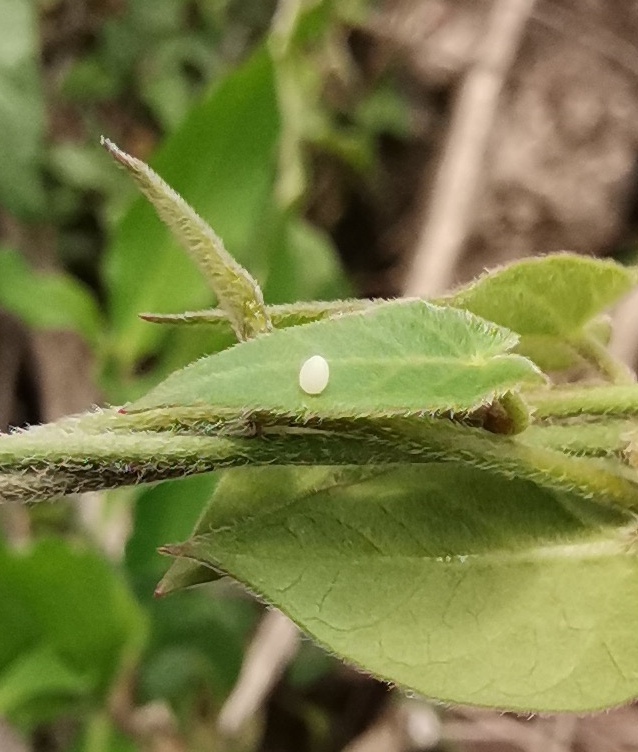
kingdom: Animalia
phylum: Arthropoda
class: Insecta
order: Lepidoptera
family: Nymphalidae
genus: Danaus
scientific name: Danaus gilippus
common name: Queen
